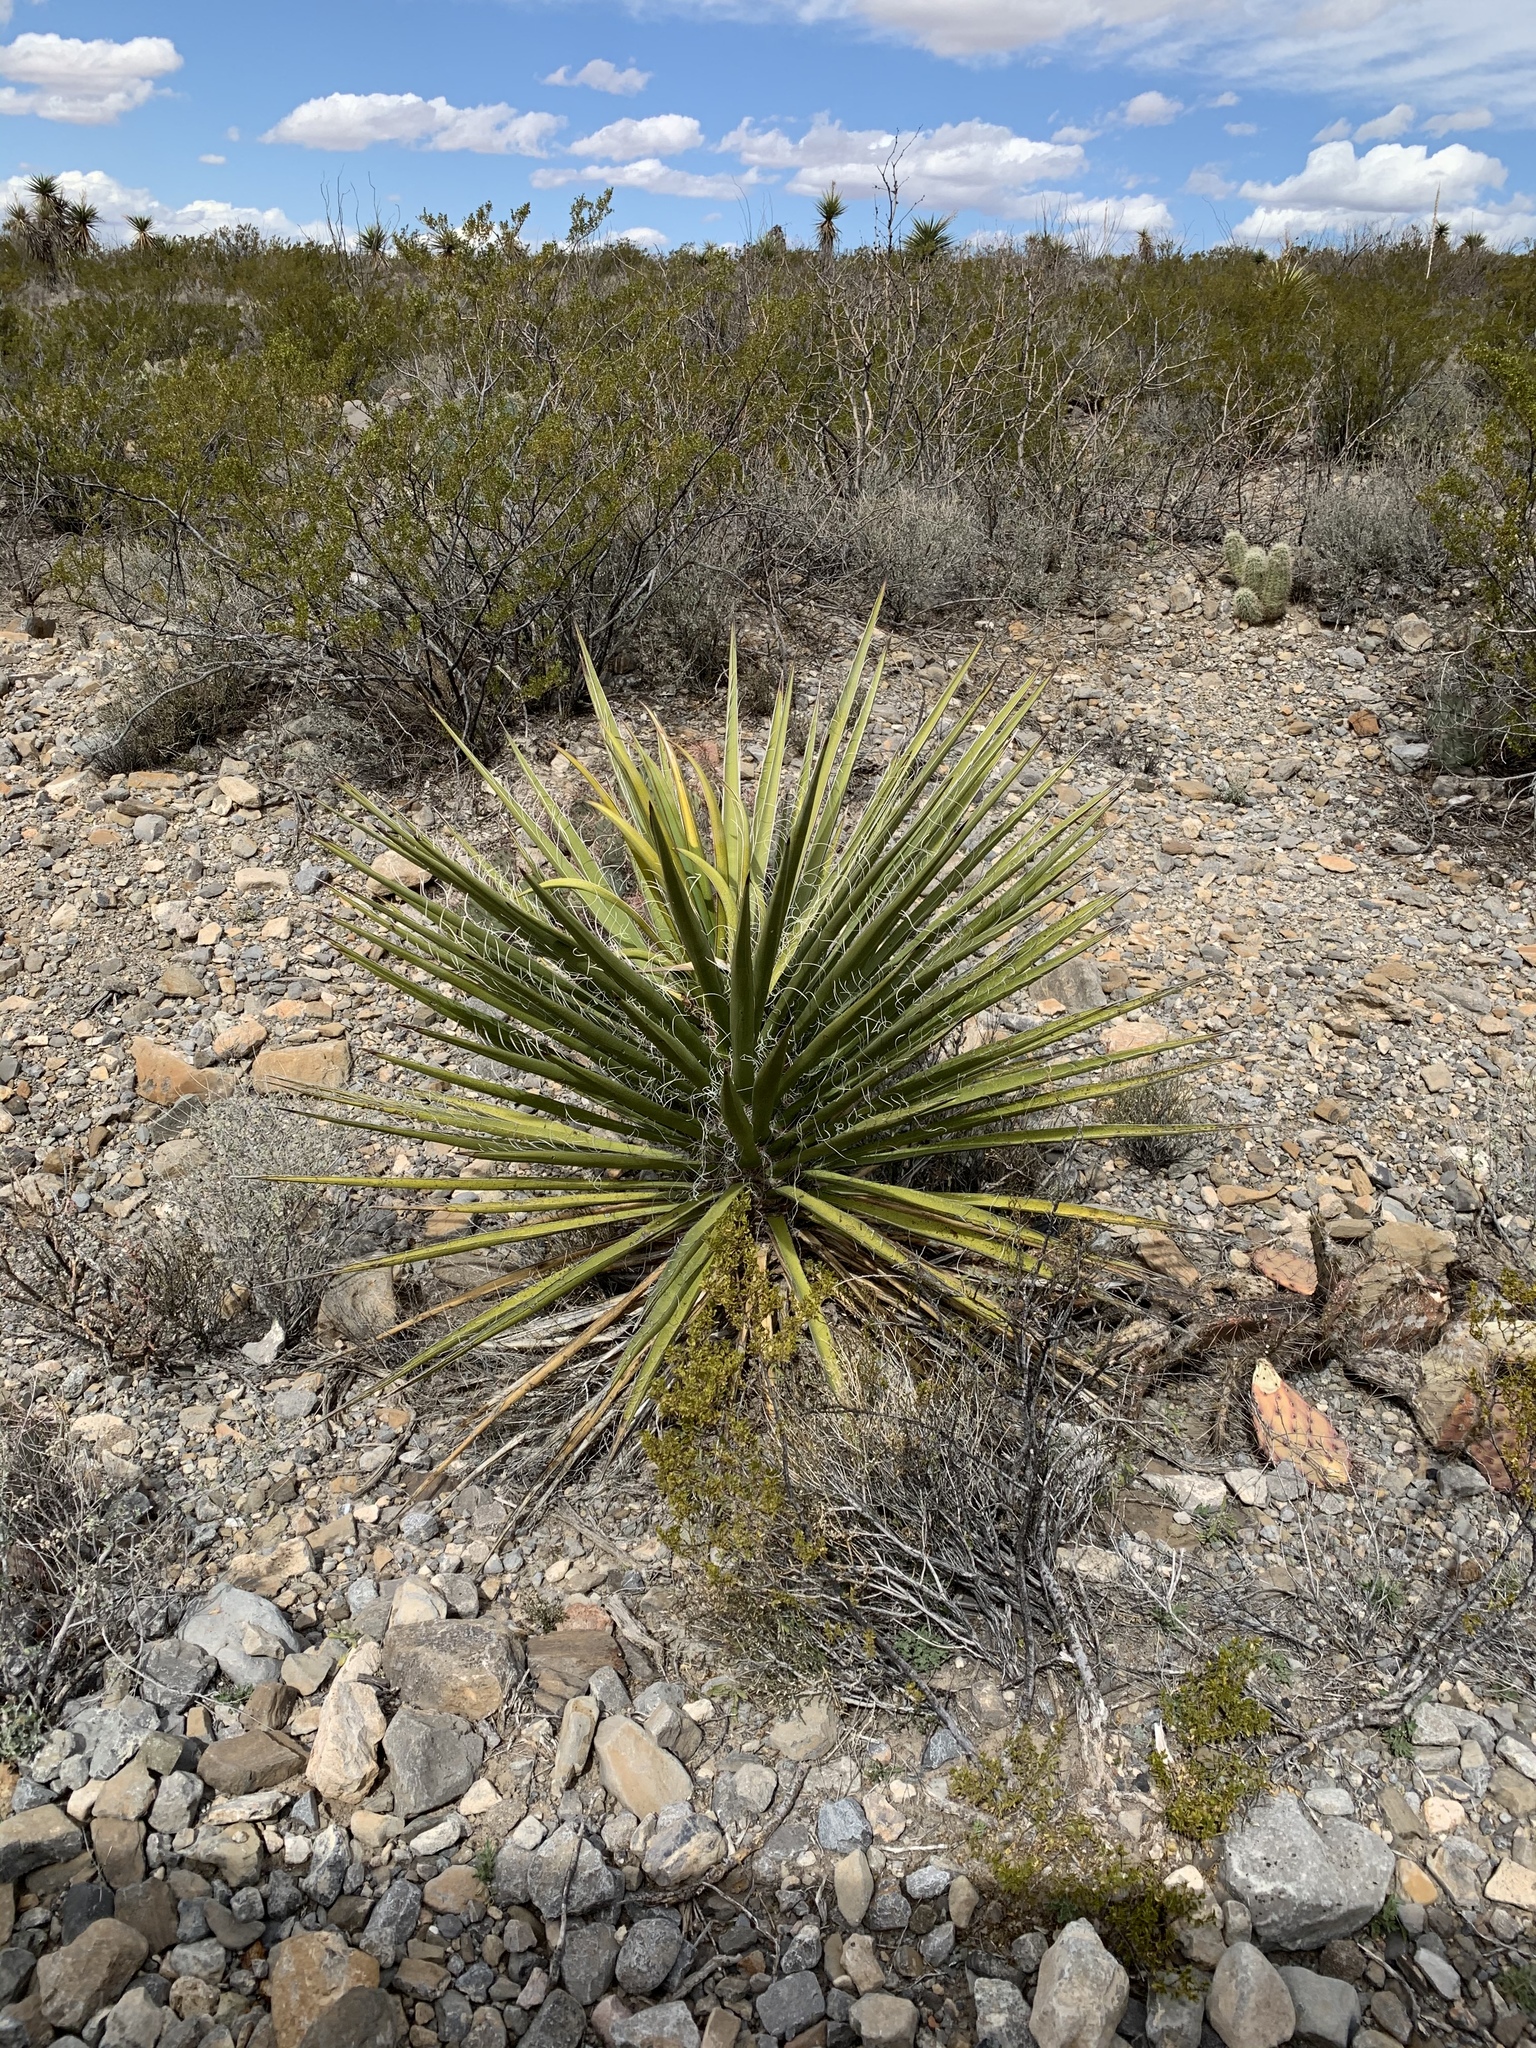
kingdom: Plantae
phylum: Tracheophyta
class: Liliopsida
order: Asparagales
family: Asparagaceae
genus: Yucca
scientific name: Yucca treculiana
